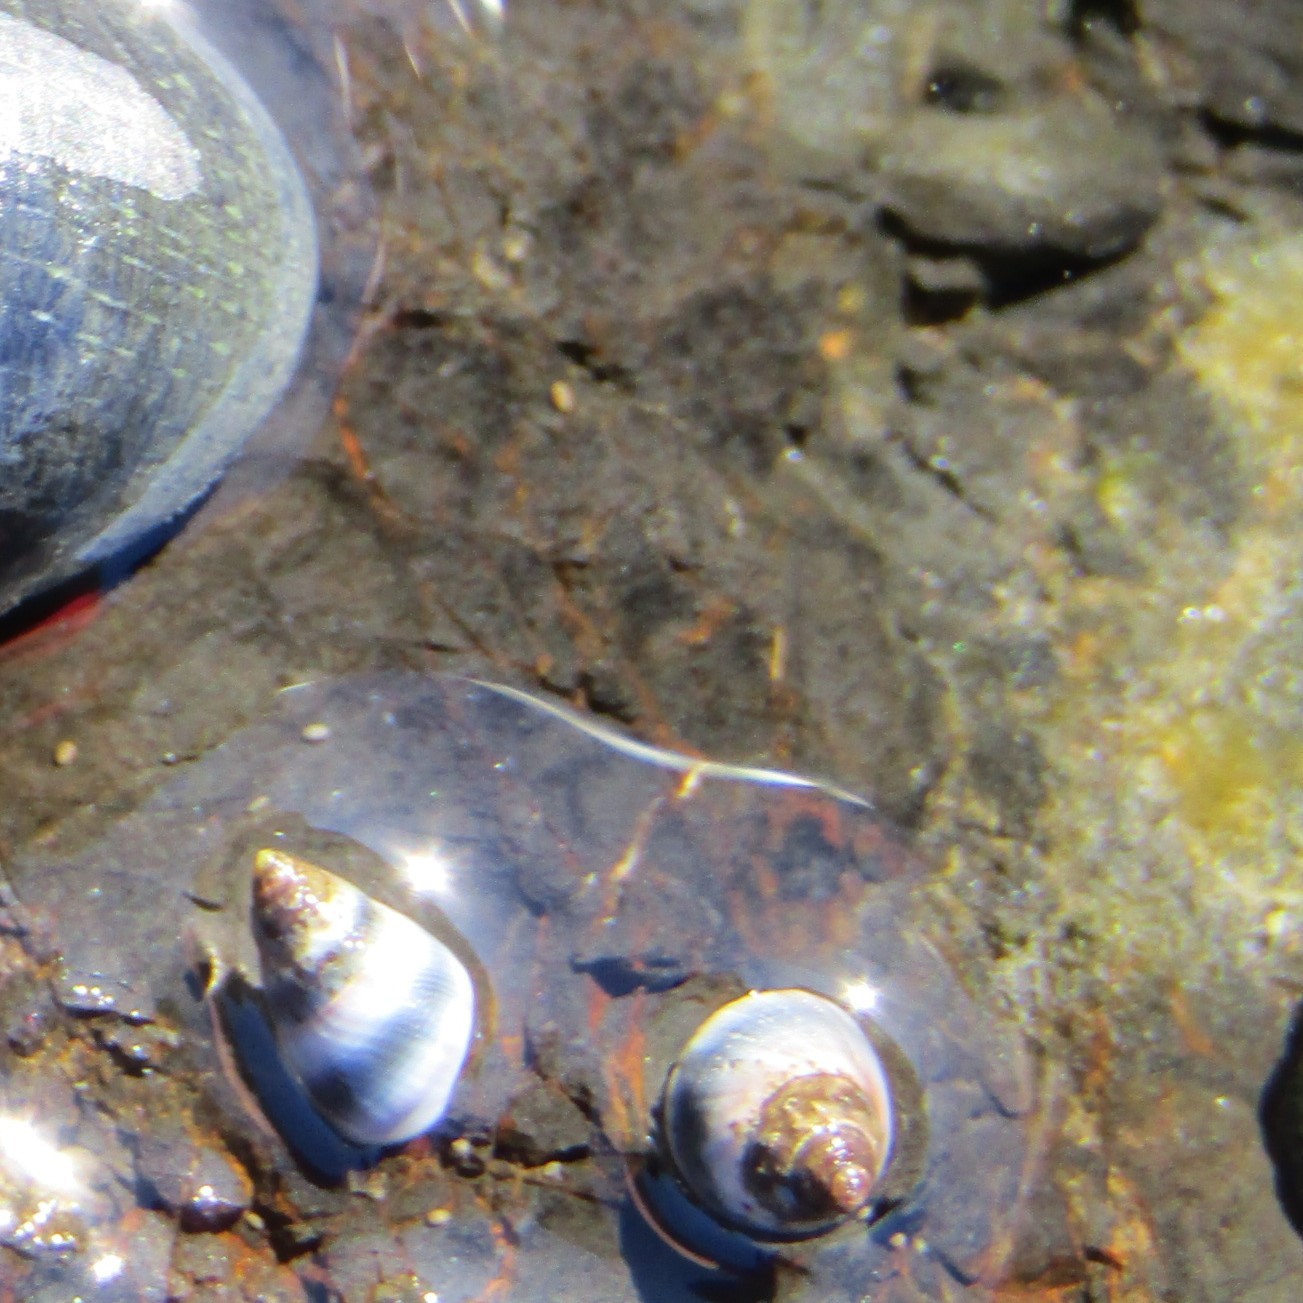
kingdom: Animalia
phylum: Mollusca
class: Gastropoda
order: Littorinimorpha
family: Littorinidae
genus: Austrolittorina
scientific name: Austrolittorina antipodum
